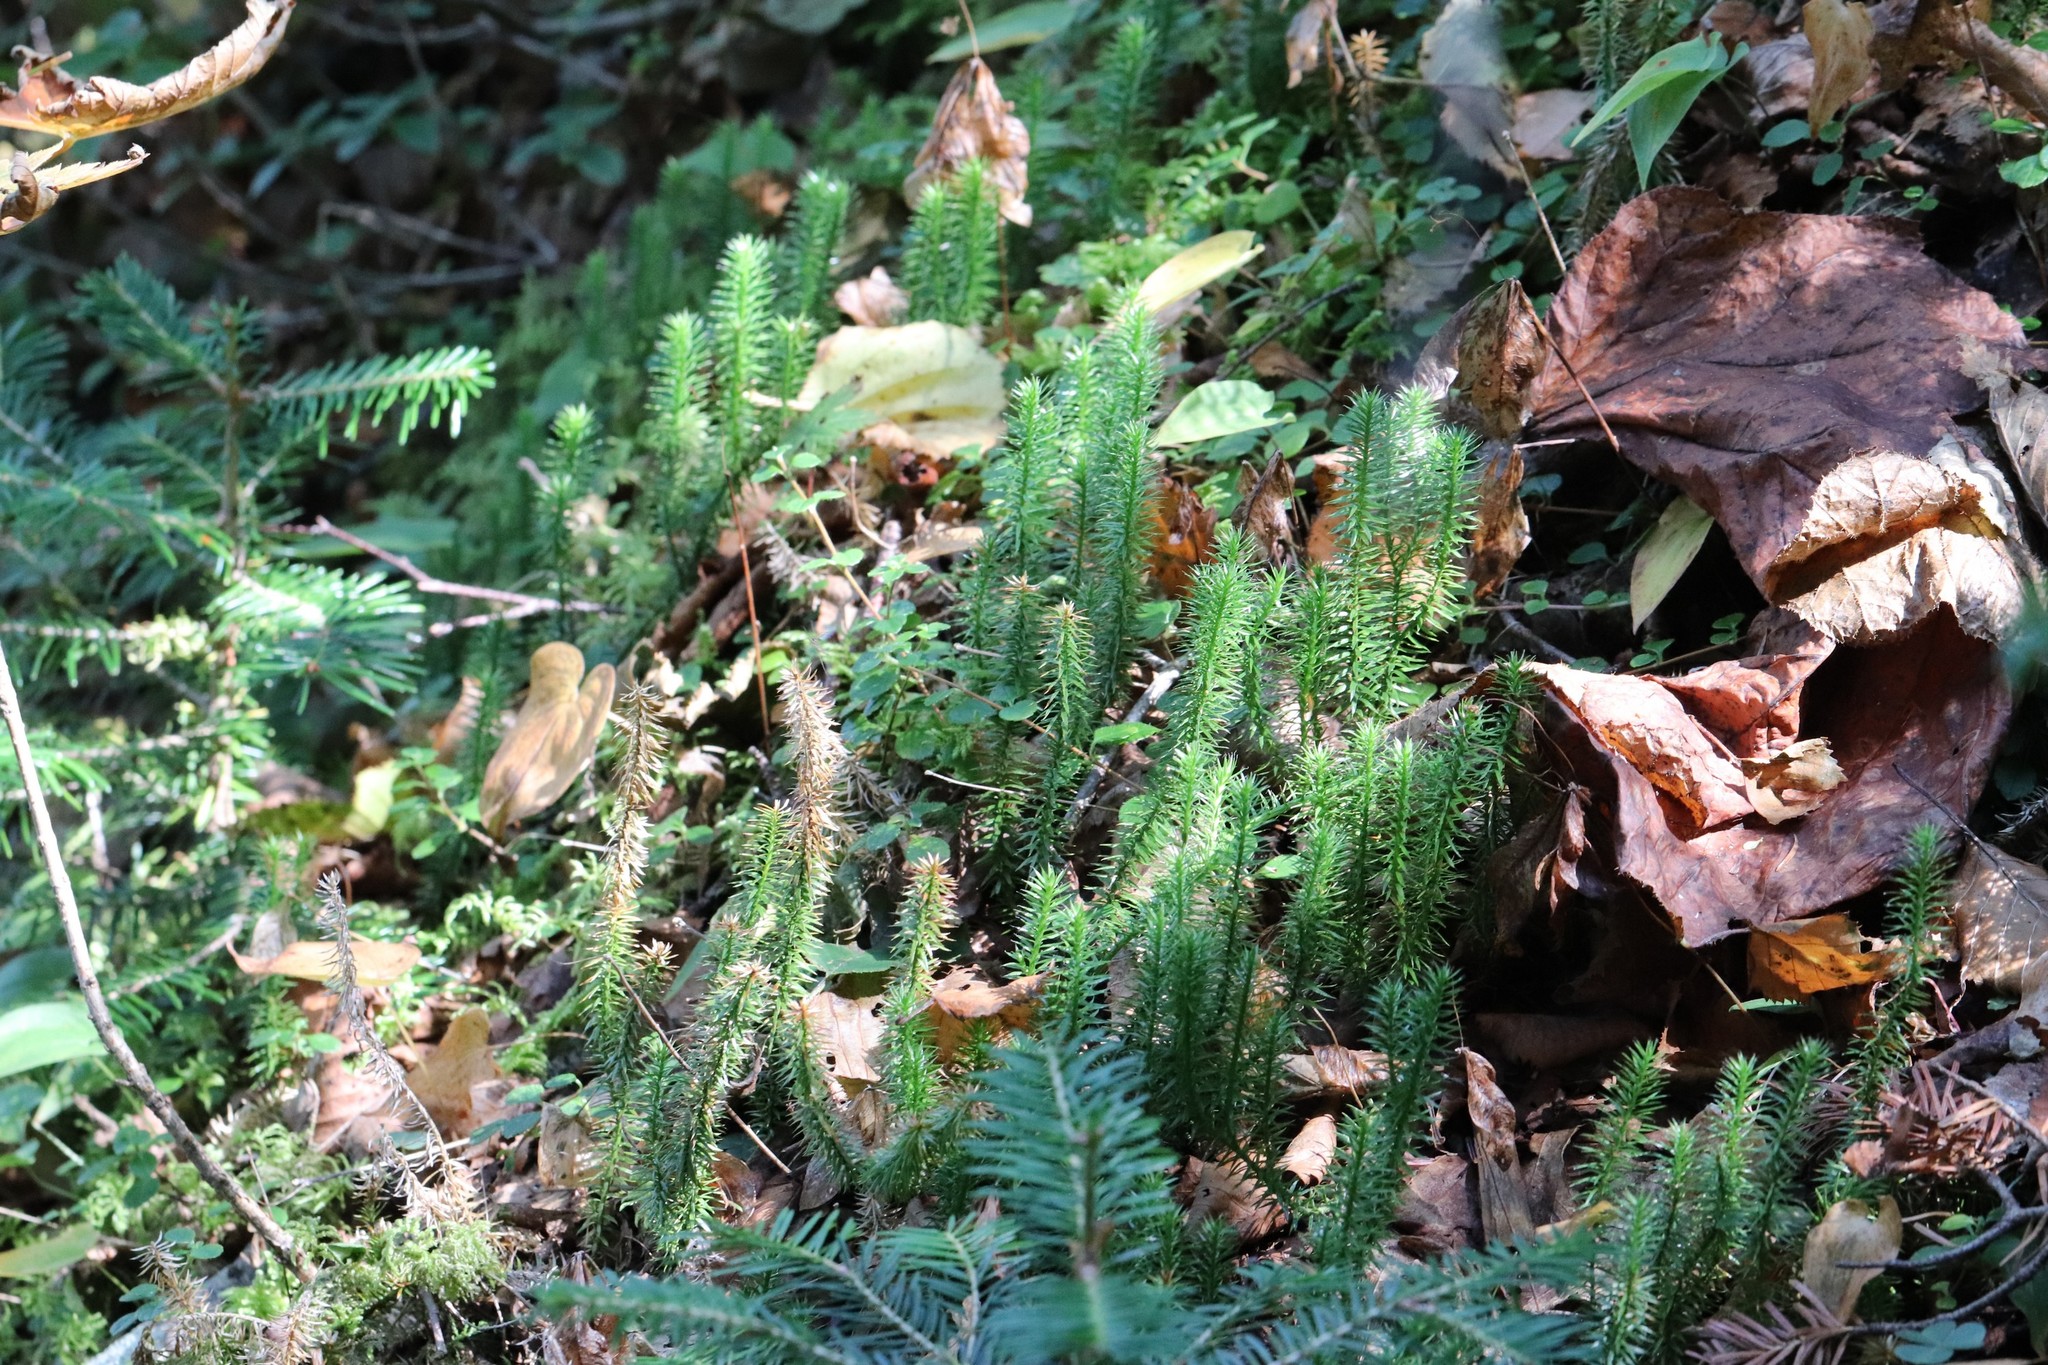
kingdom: Plantae
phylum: Tracheophyta
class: Lycopodiopsida
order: Lycopodiales
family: Lycopodiaceae
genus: Spinulum
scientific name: Spinulum annotinum
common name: Interrupted club-moss
